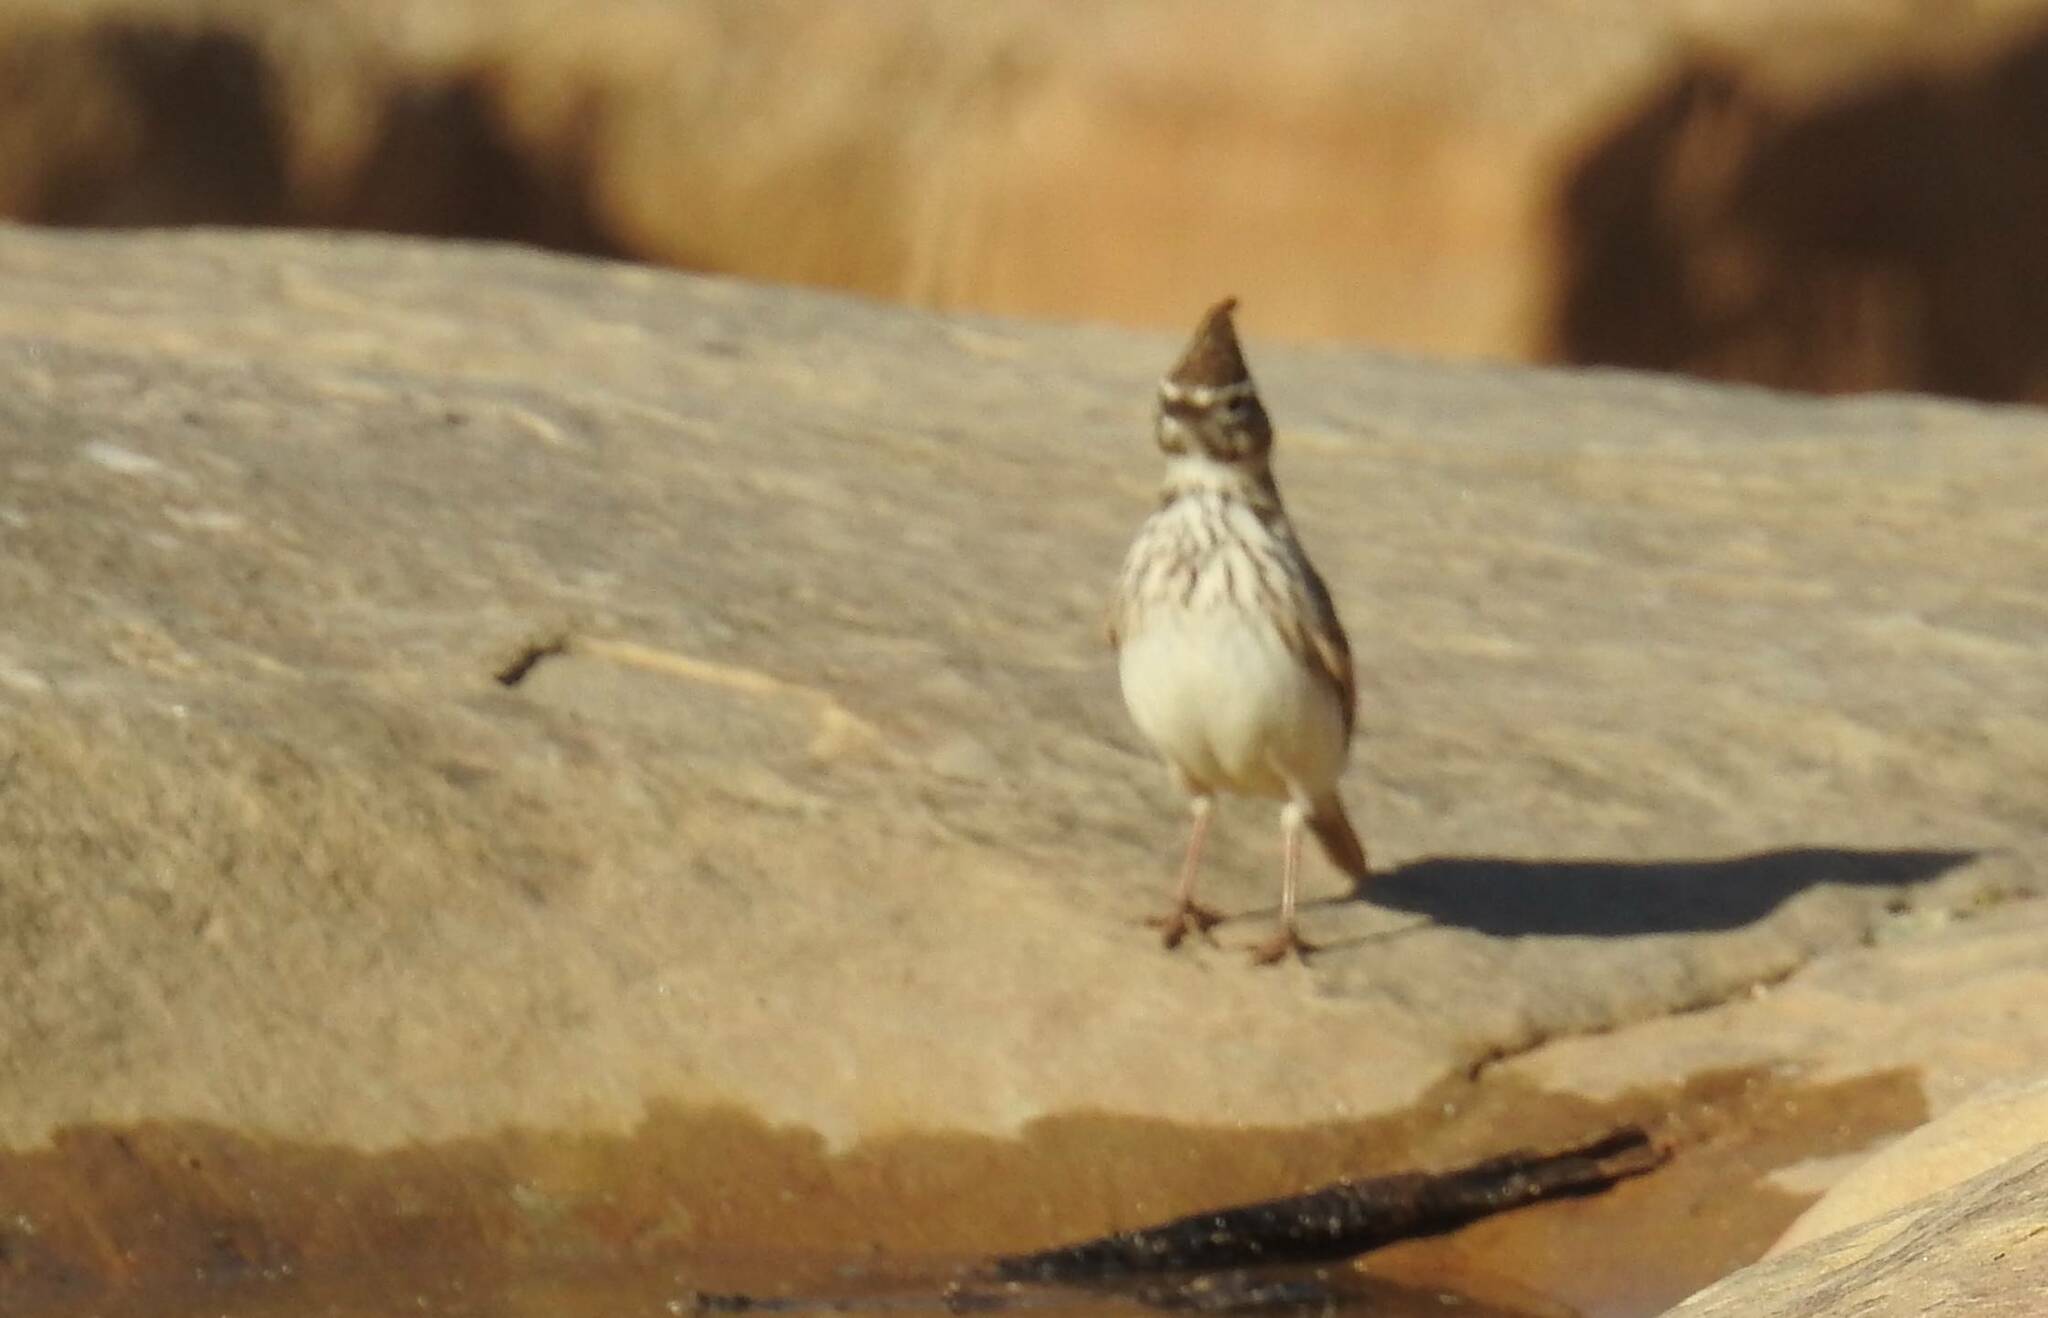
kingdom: Animalia
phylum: Chordata
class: Aves
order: Passeriformes
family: Alaudidae
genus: Galerida
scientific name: Galerida theklae
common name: Thekla lark
